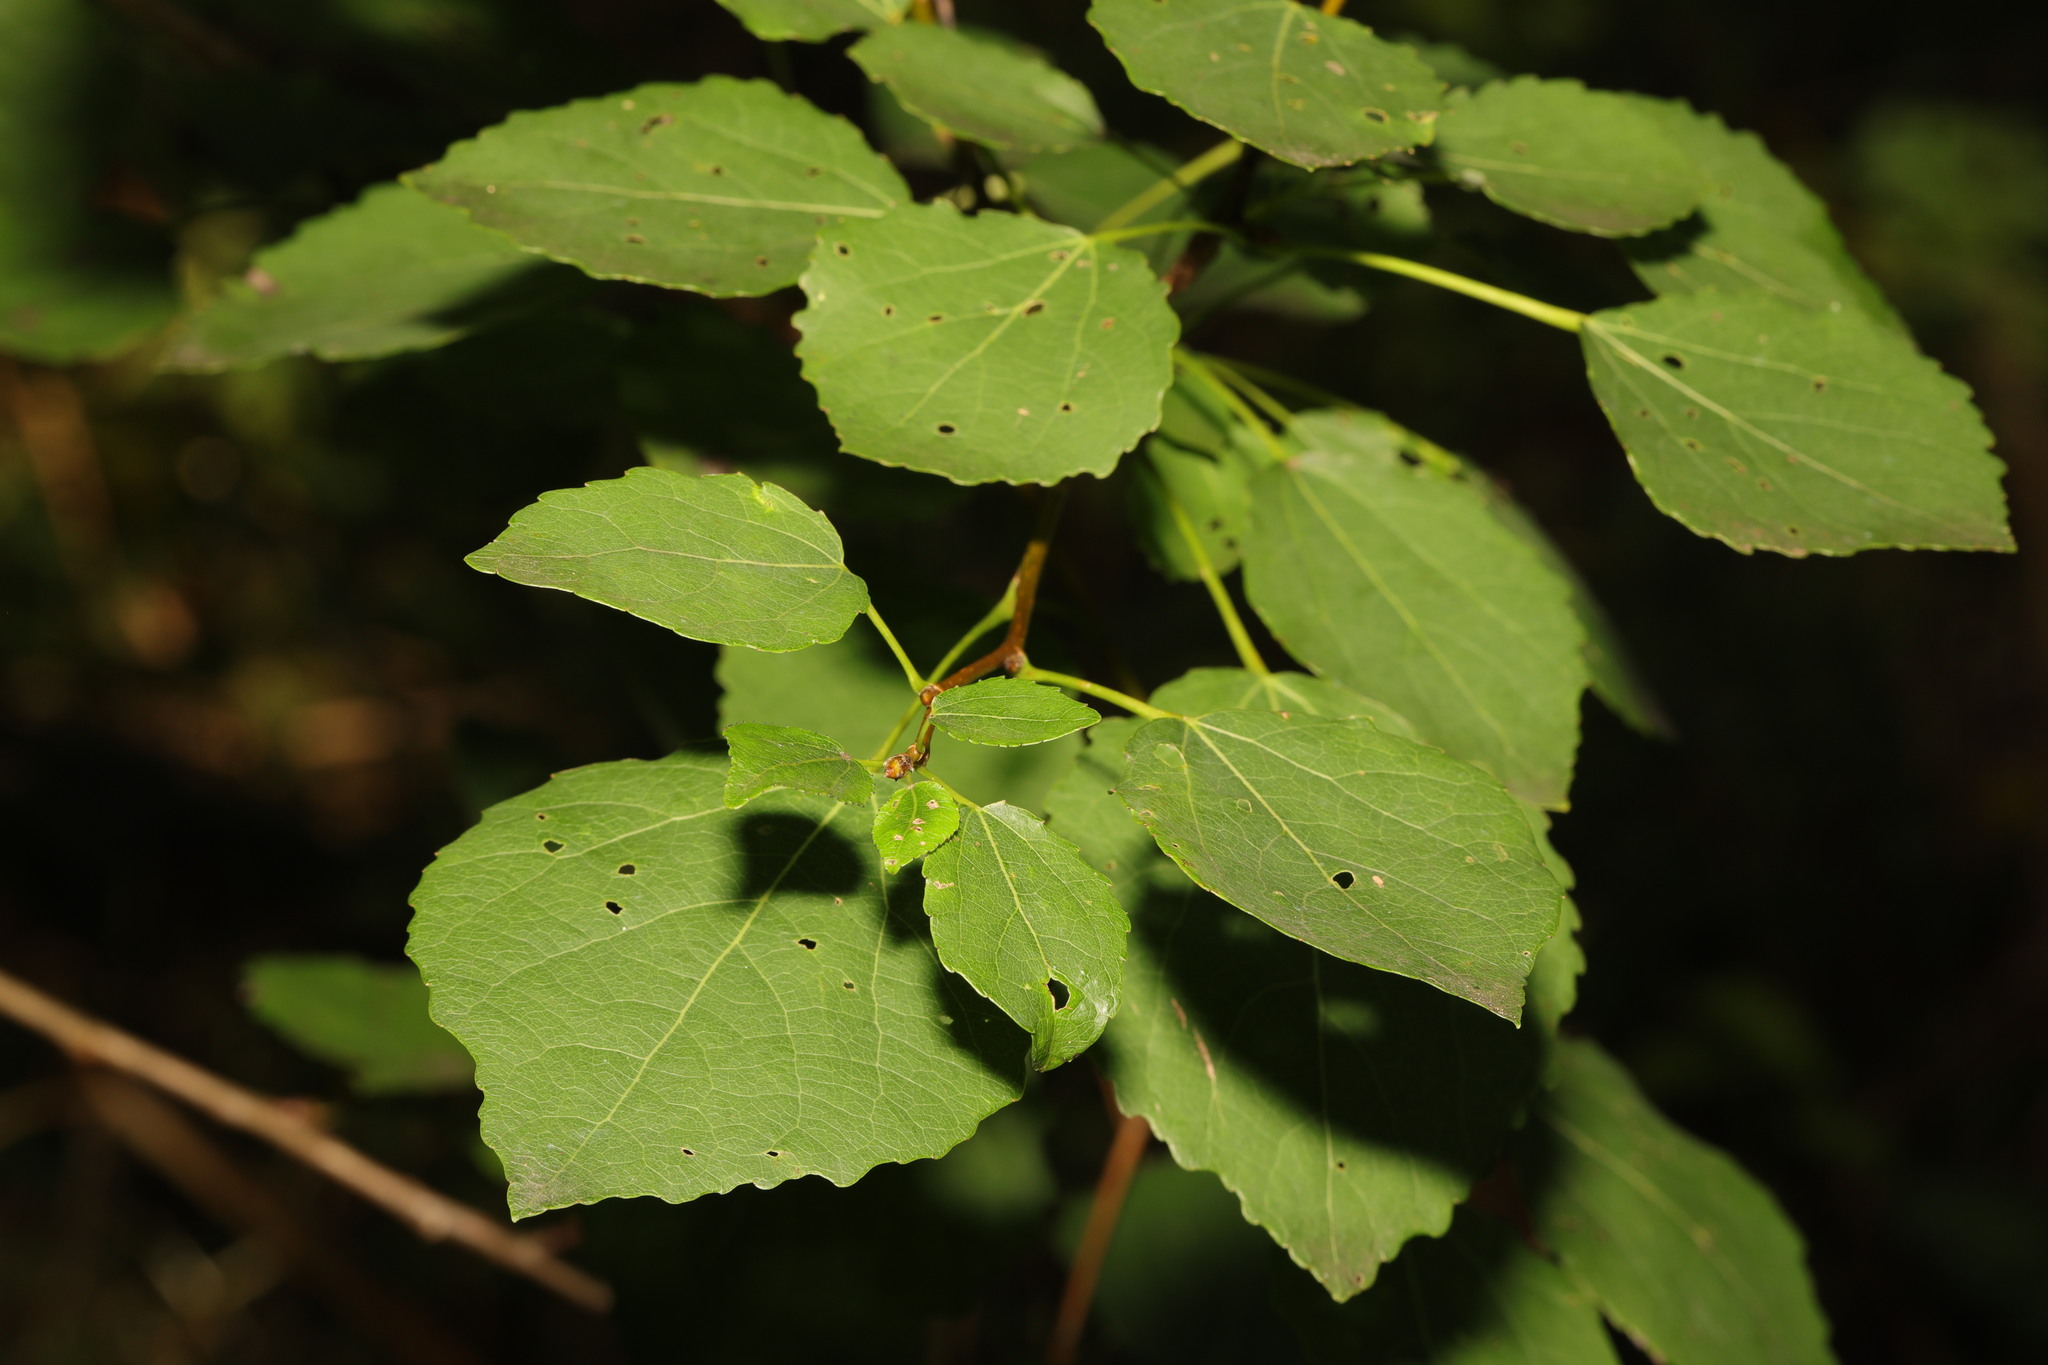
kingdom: Plantae
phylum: Tracheophyta
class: Magnoliopsida
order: Malpighiales
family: Salicaceae
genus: Populus
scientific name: Populus tremula
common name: European aspen
